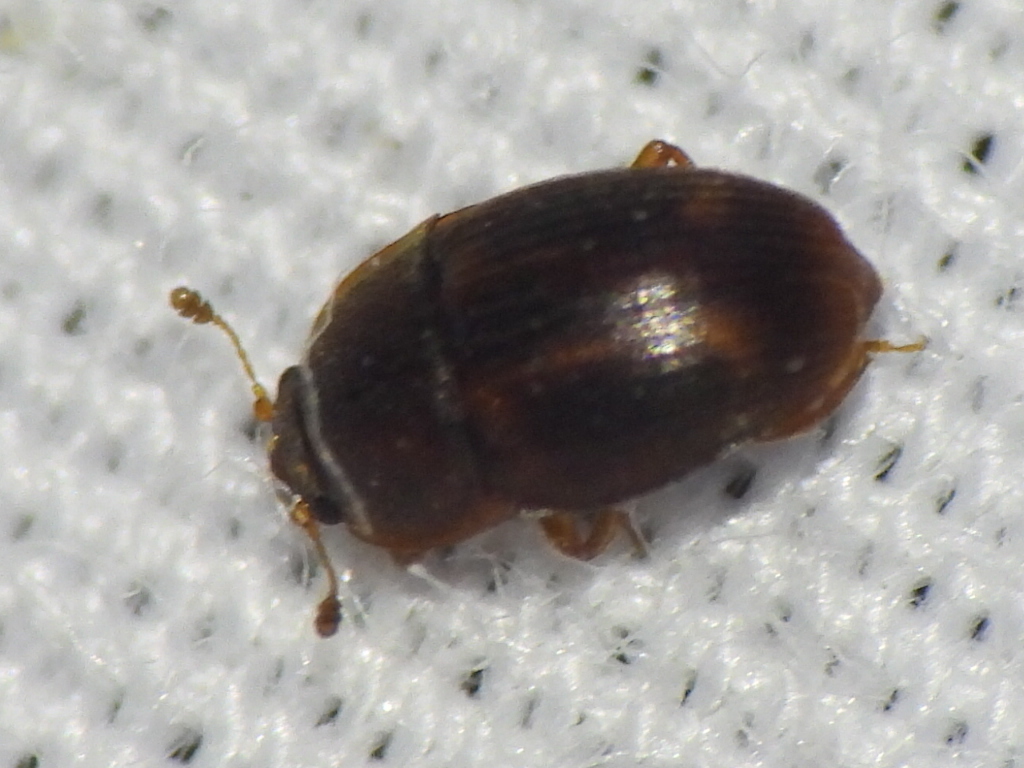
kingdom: Animalia
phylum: Arthropoda
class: Insecta
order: Coleoptera
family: Nitidulidae
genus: Stelidota
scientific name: Stelidota coenosa
